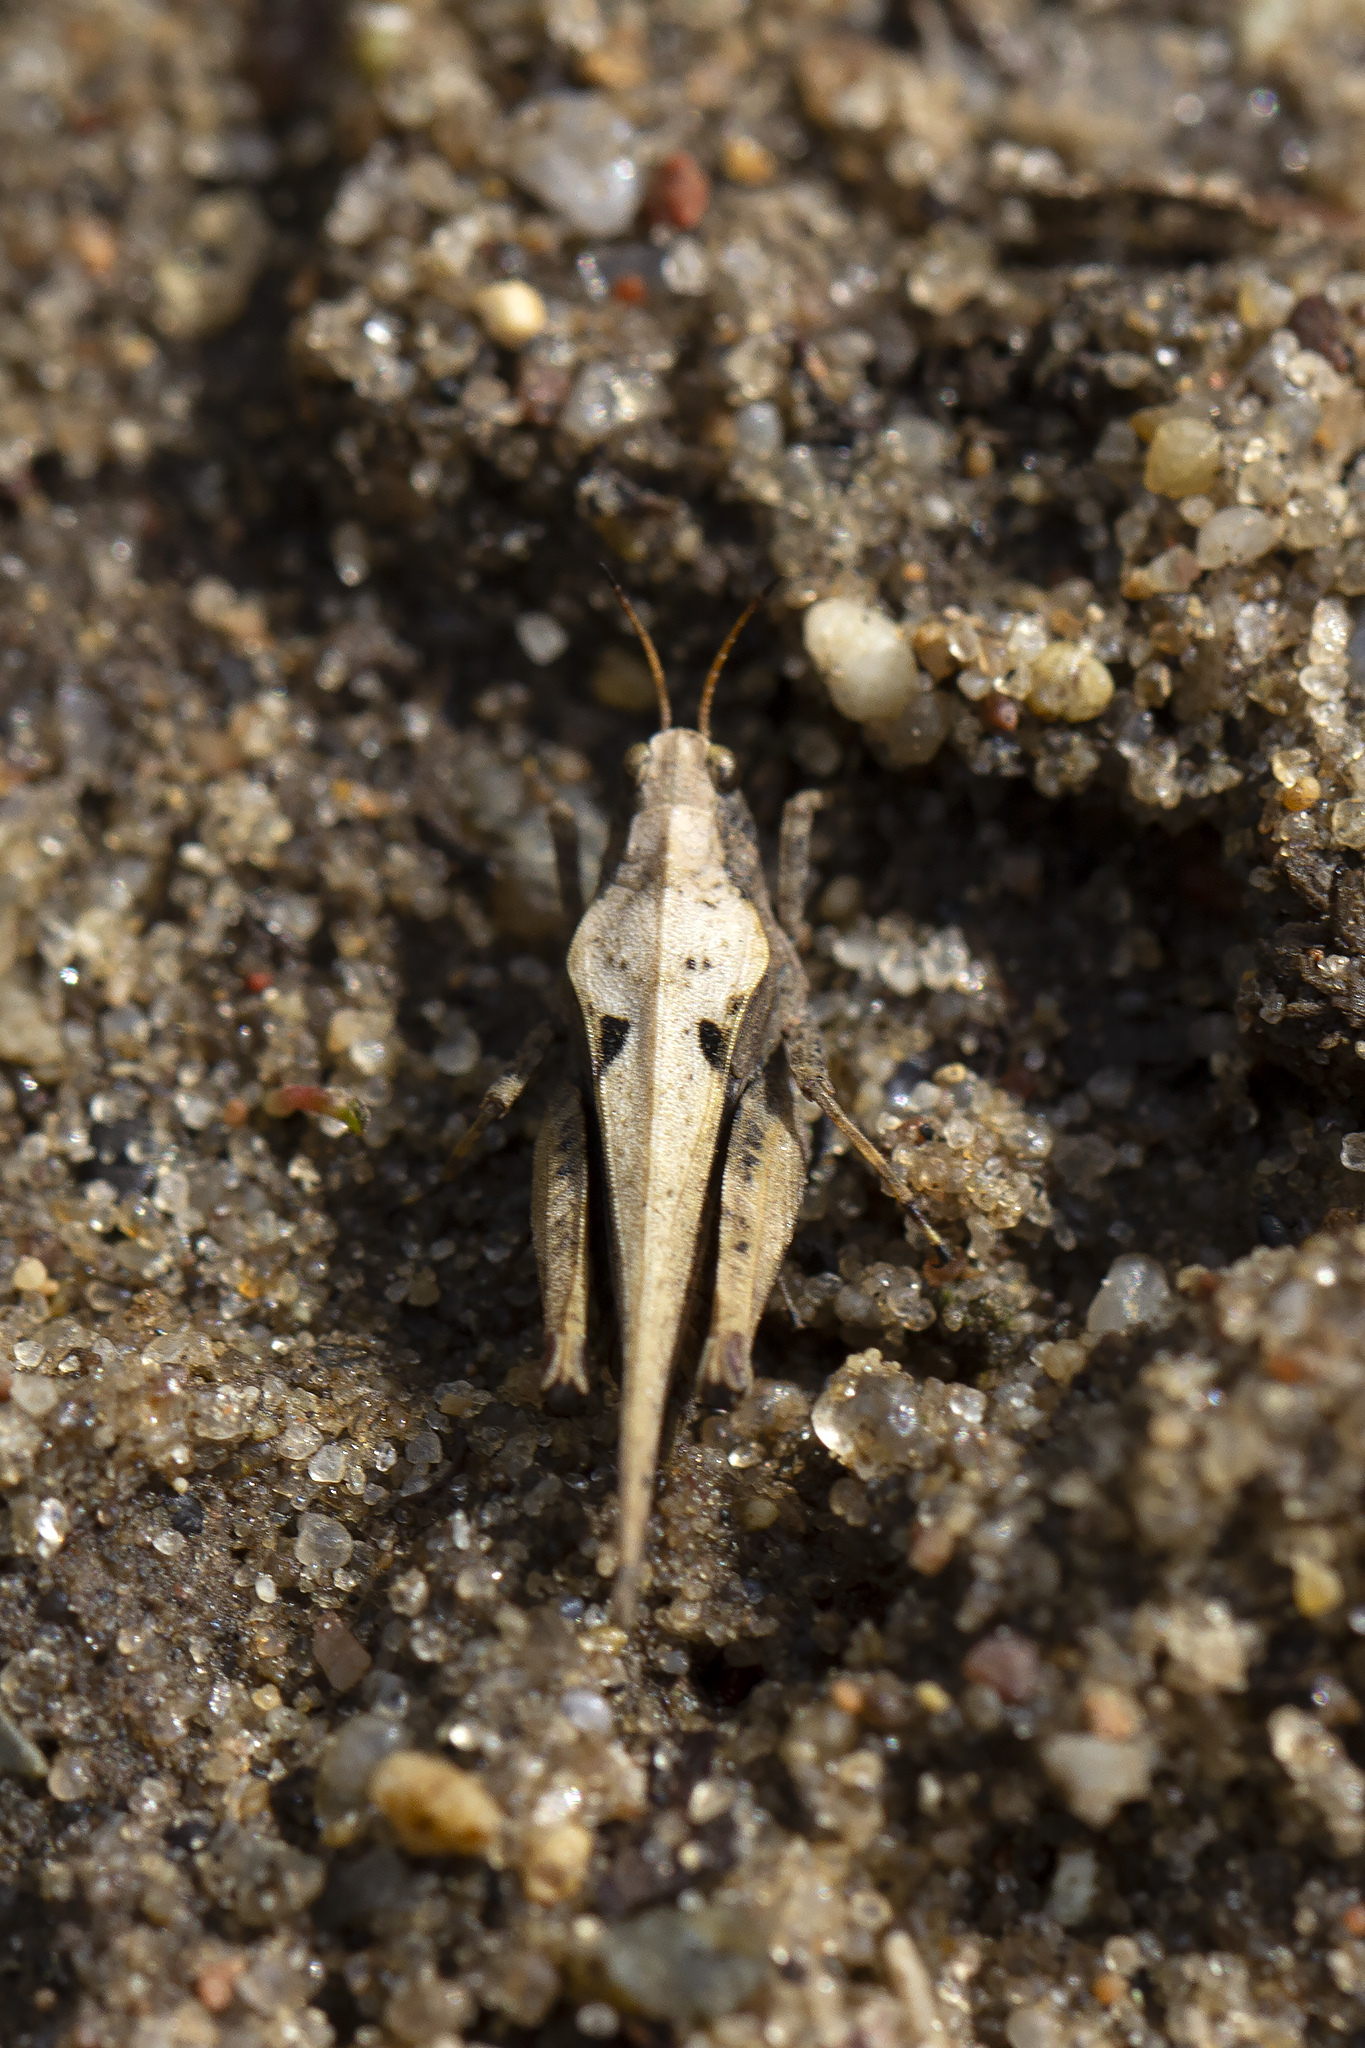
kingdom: Animalia
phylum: Arthropoda
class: Insecta
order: Orthoptera
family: Tetrigidae
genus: Tetrix
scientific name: Tetrix subulata
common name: Slender ground-hopper
